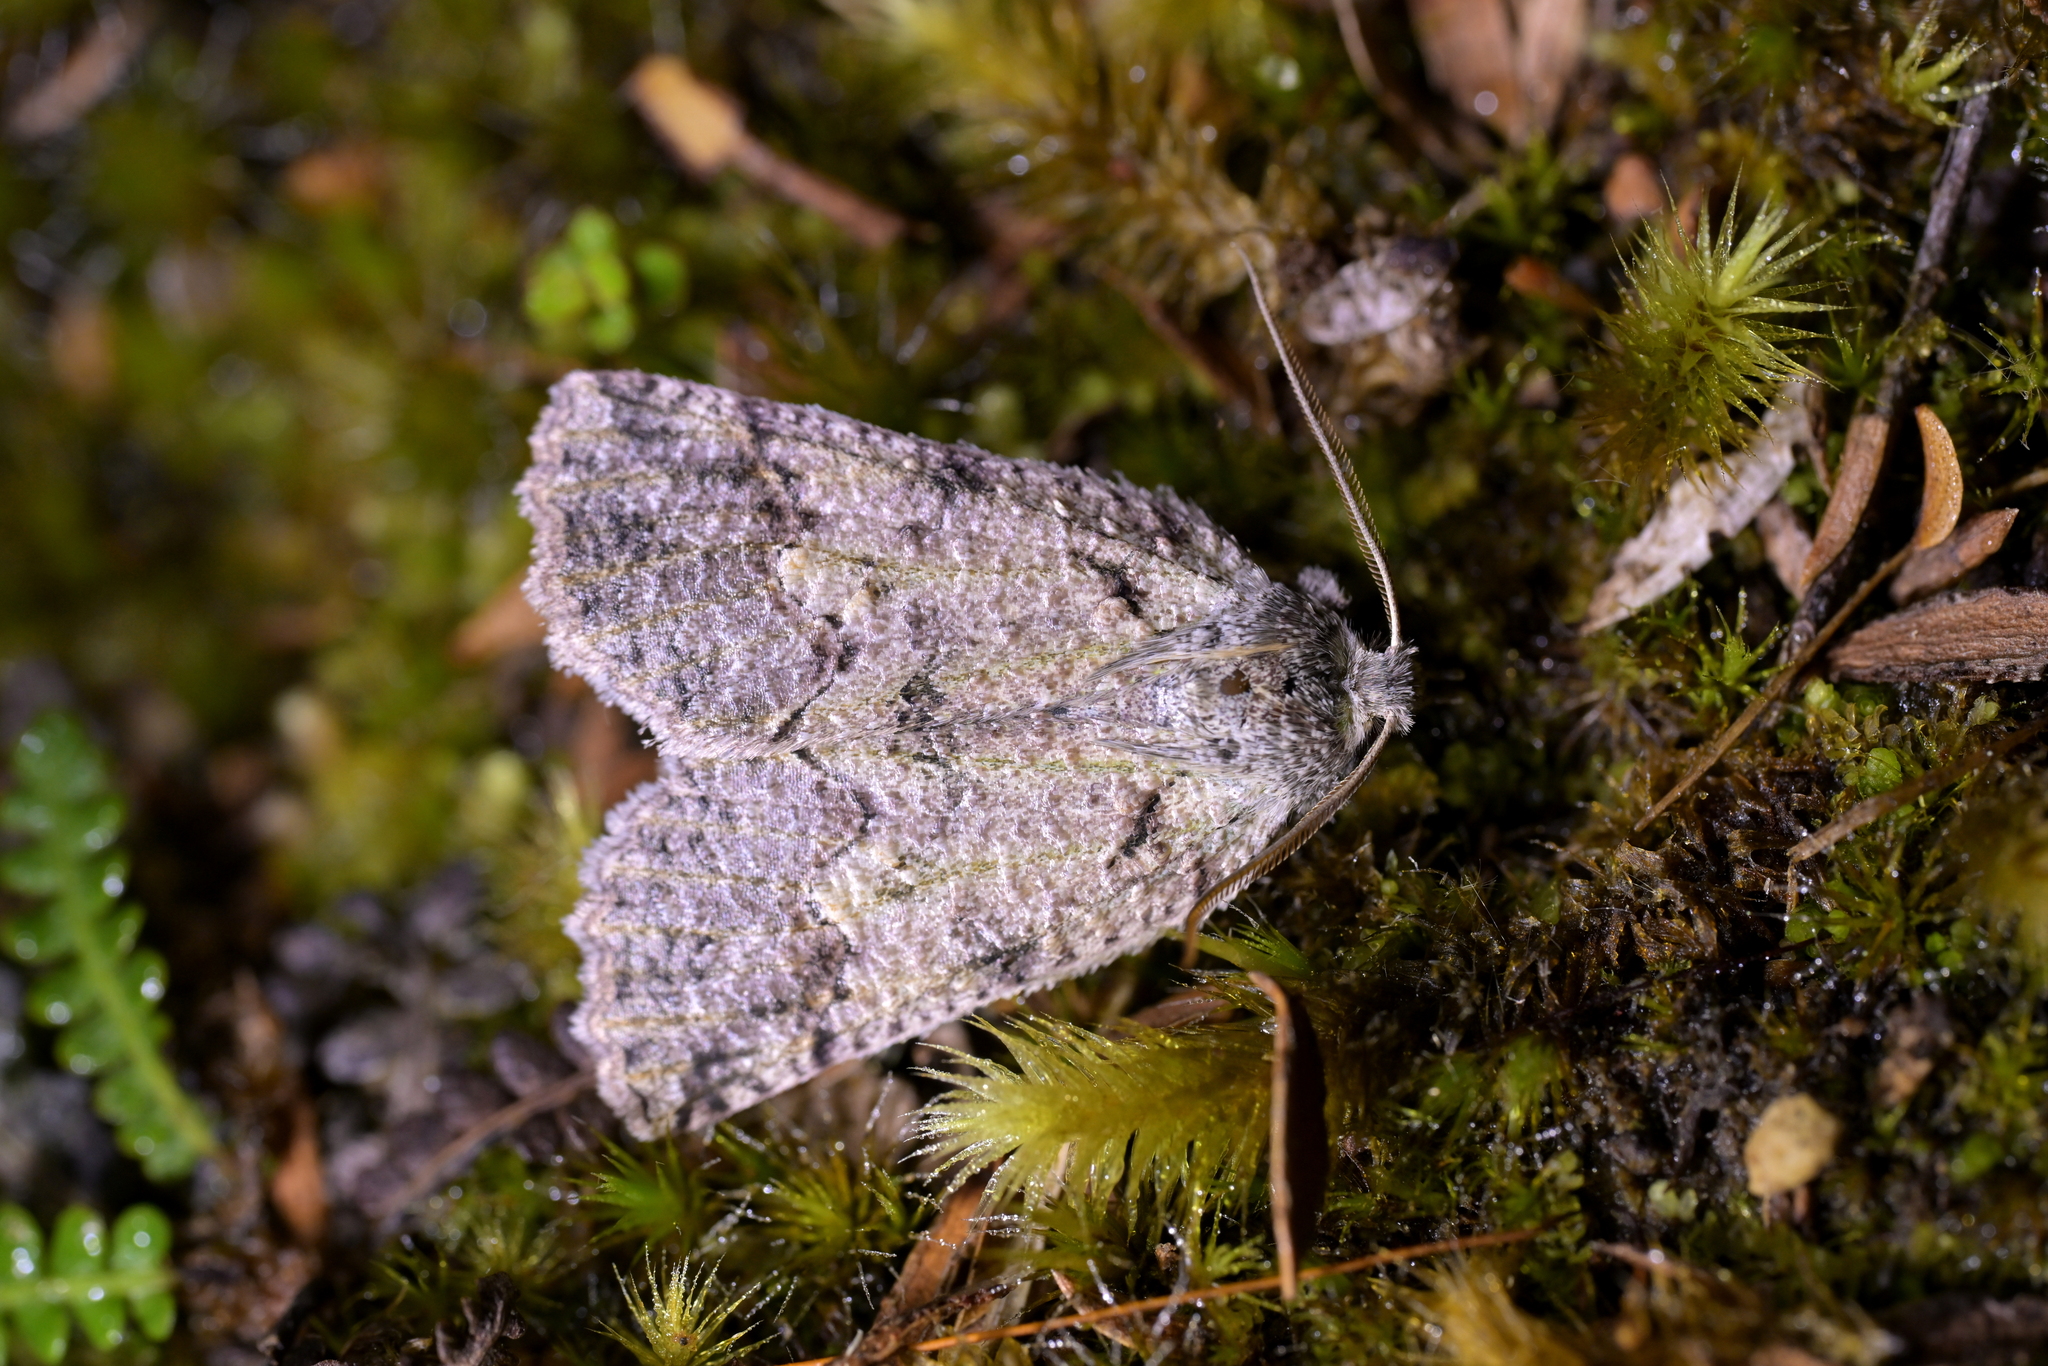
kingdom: Animalia
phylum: Arthropoda
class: Insecta
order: Lepidoptera
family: Geometridae
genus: Declana
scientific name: Declana floccosa
